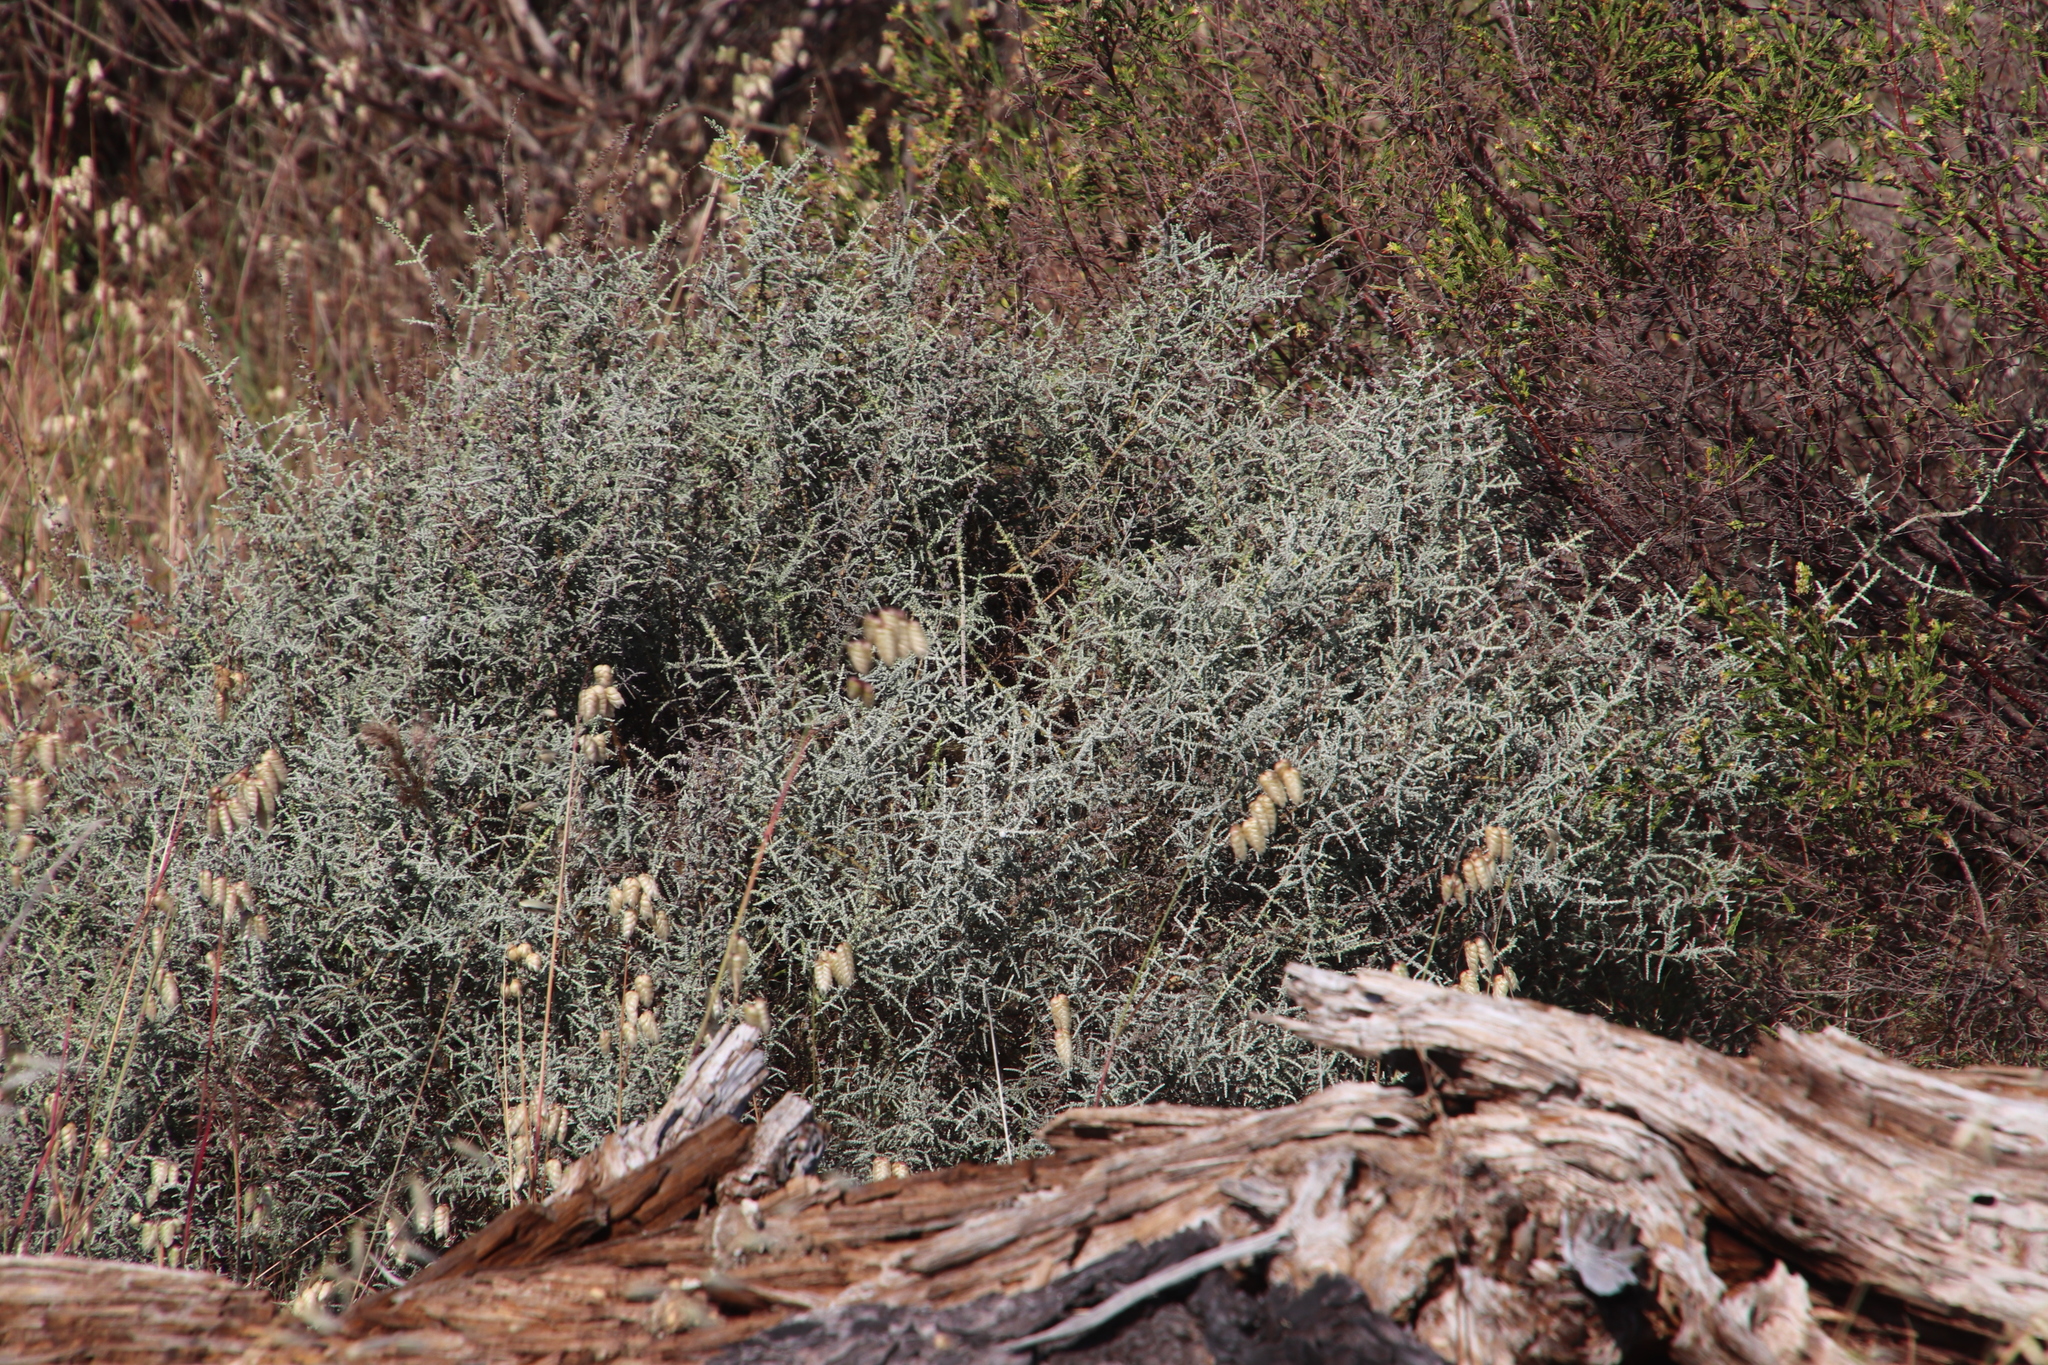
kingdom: Plantae
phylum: Tracheophyta
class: Magnoliopsida
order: Asterales
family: Asteraceae
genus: Seriphium
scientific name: Seriphium plumosum
